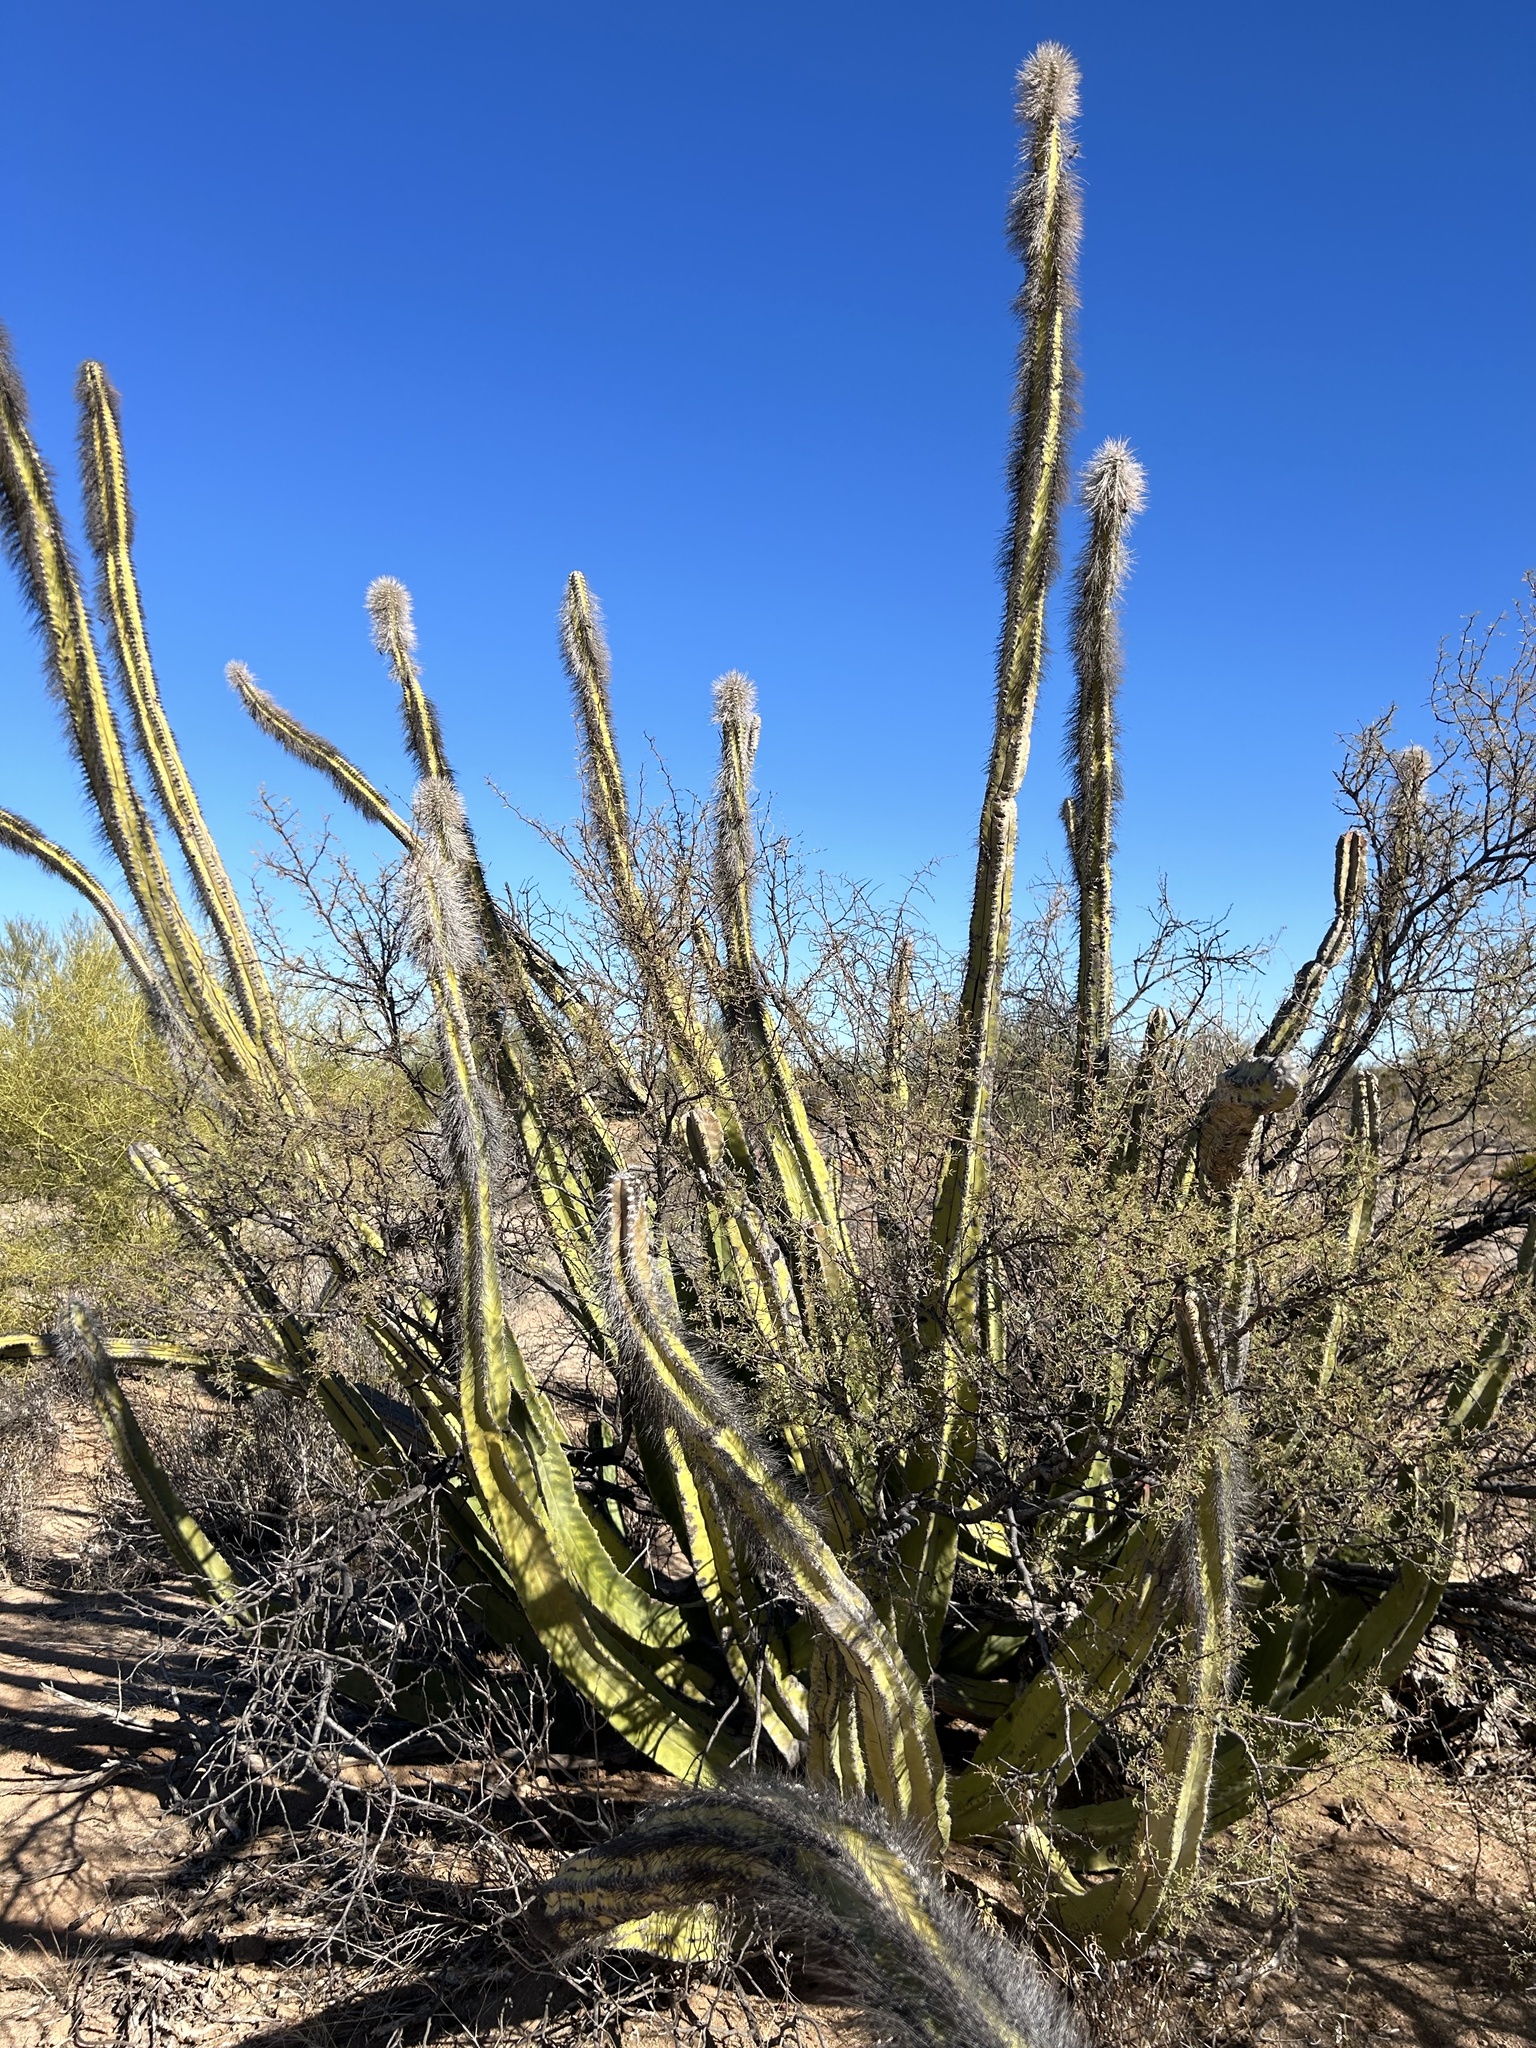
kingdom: Plantae
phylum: Tracheophyta
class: Magnoliopsida
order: Caryophyllales
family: Cactaceae
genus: Pachycereus
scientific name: Pachycereus schottii
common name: Senita cactus
